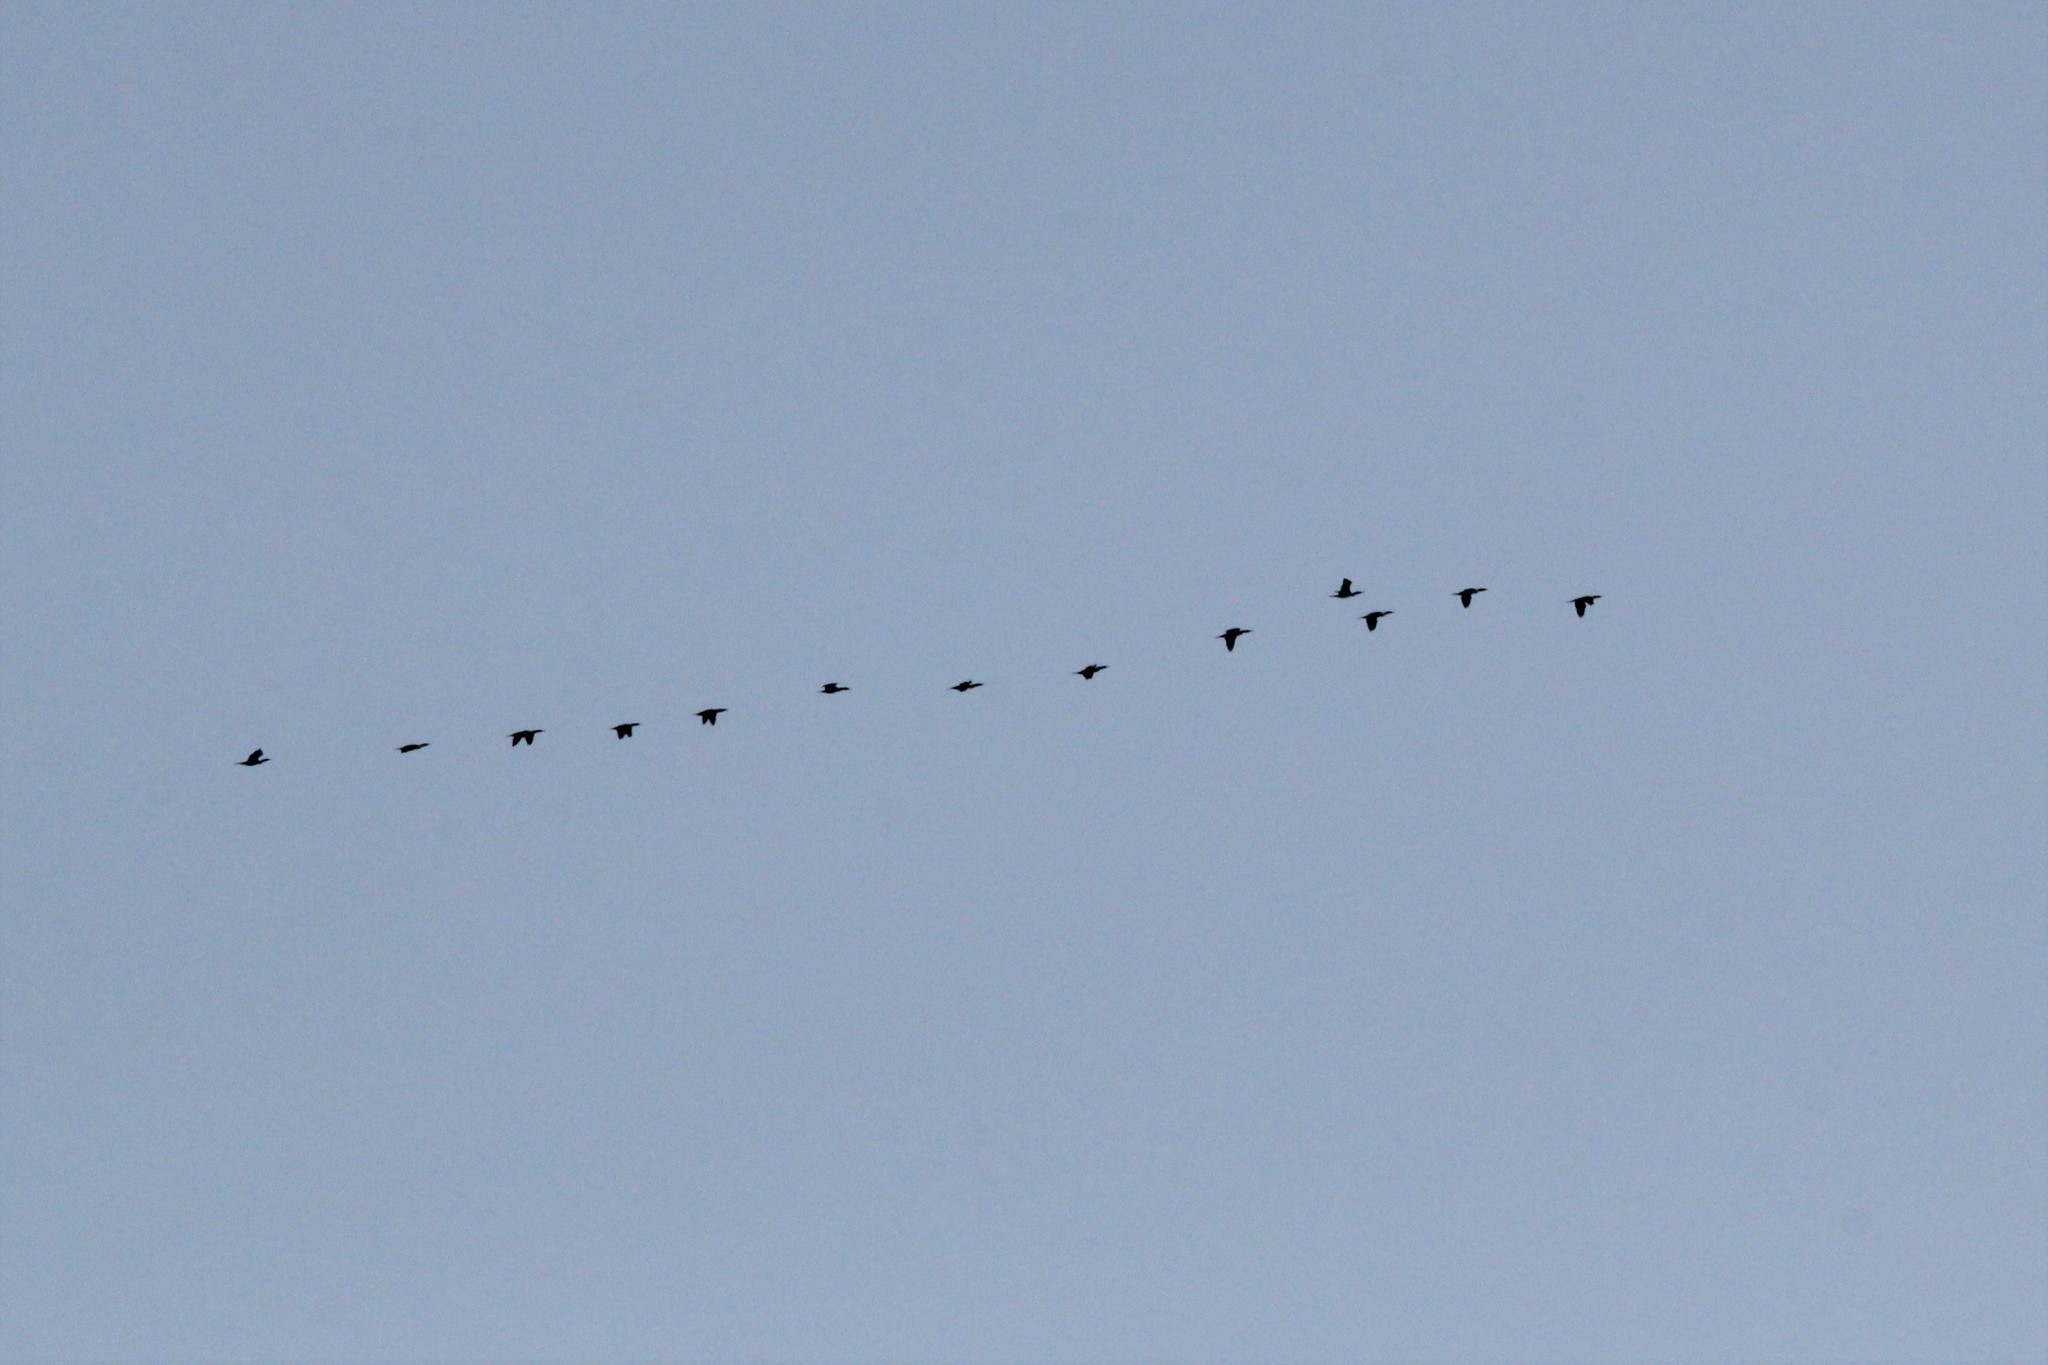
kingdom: Animalia
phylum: Chordata
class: Aves
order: Suliformes
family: Phalacrocoracidae
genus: Phalacrocorax
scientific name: Phalacrocorax auritus
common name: Double-crested cormorant
